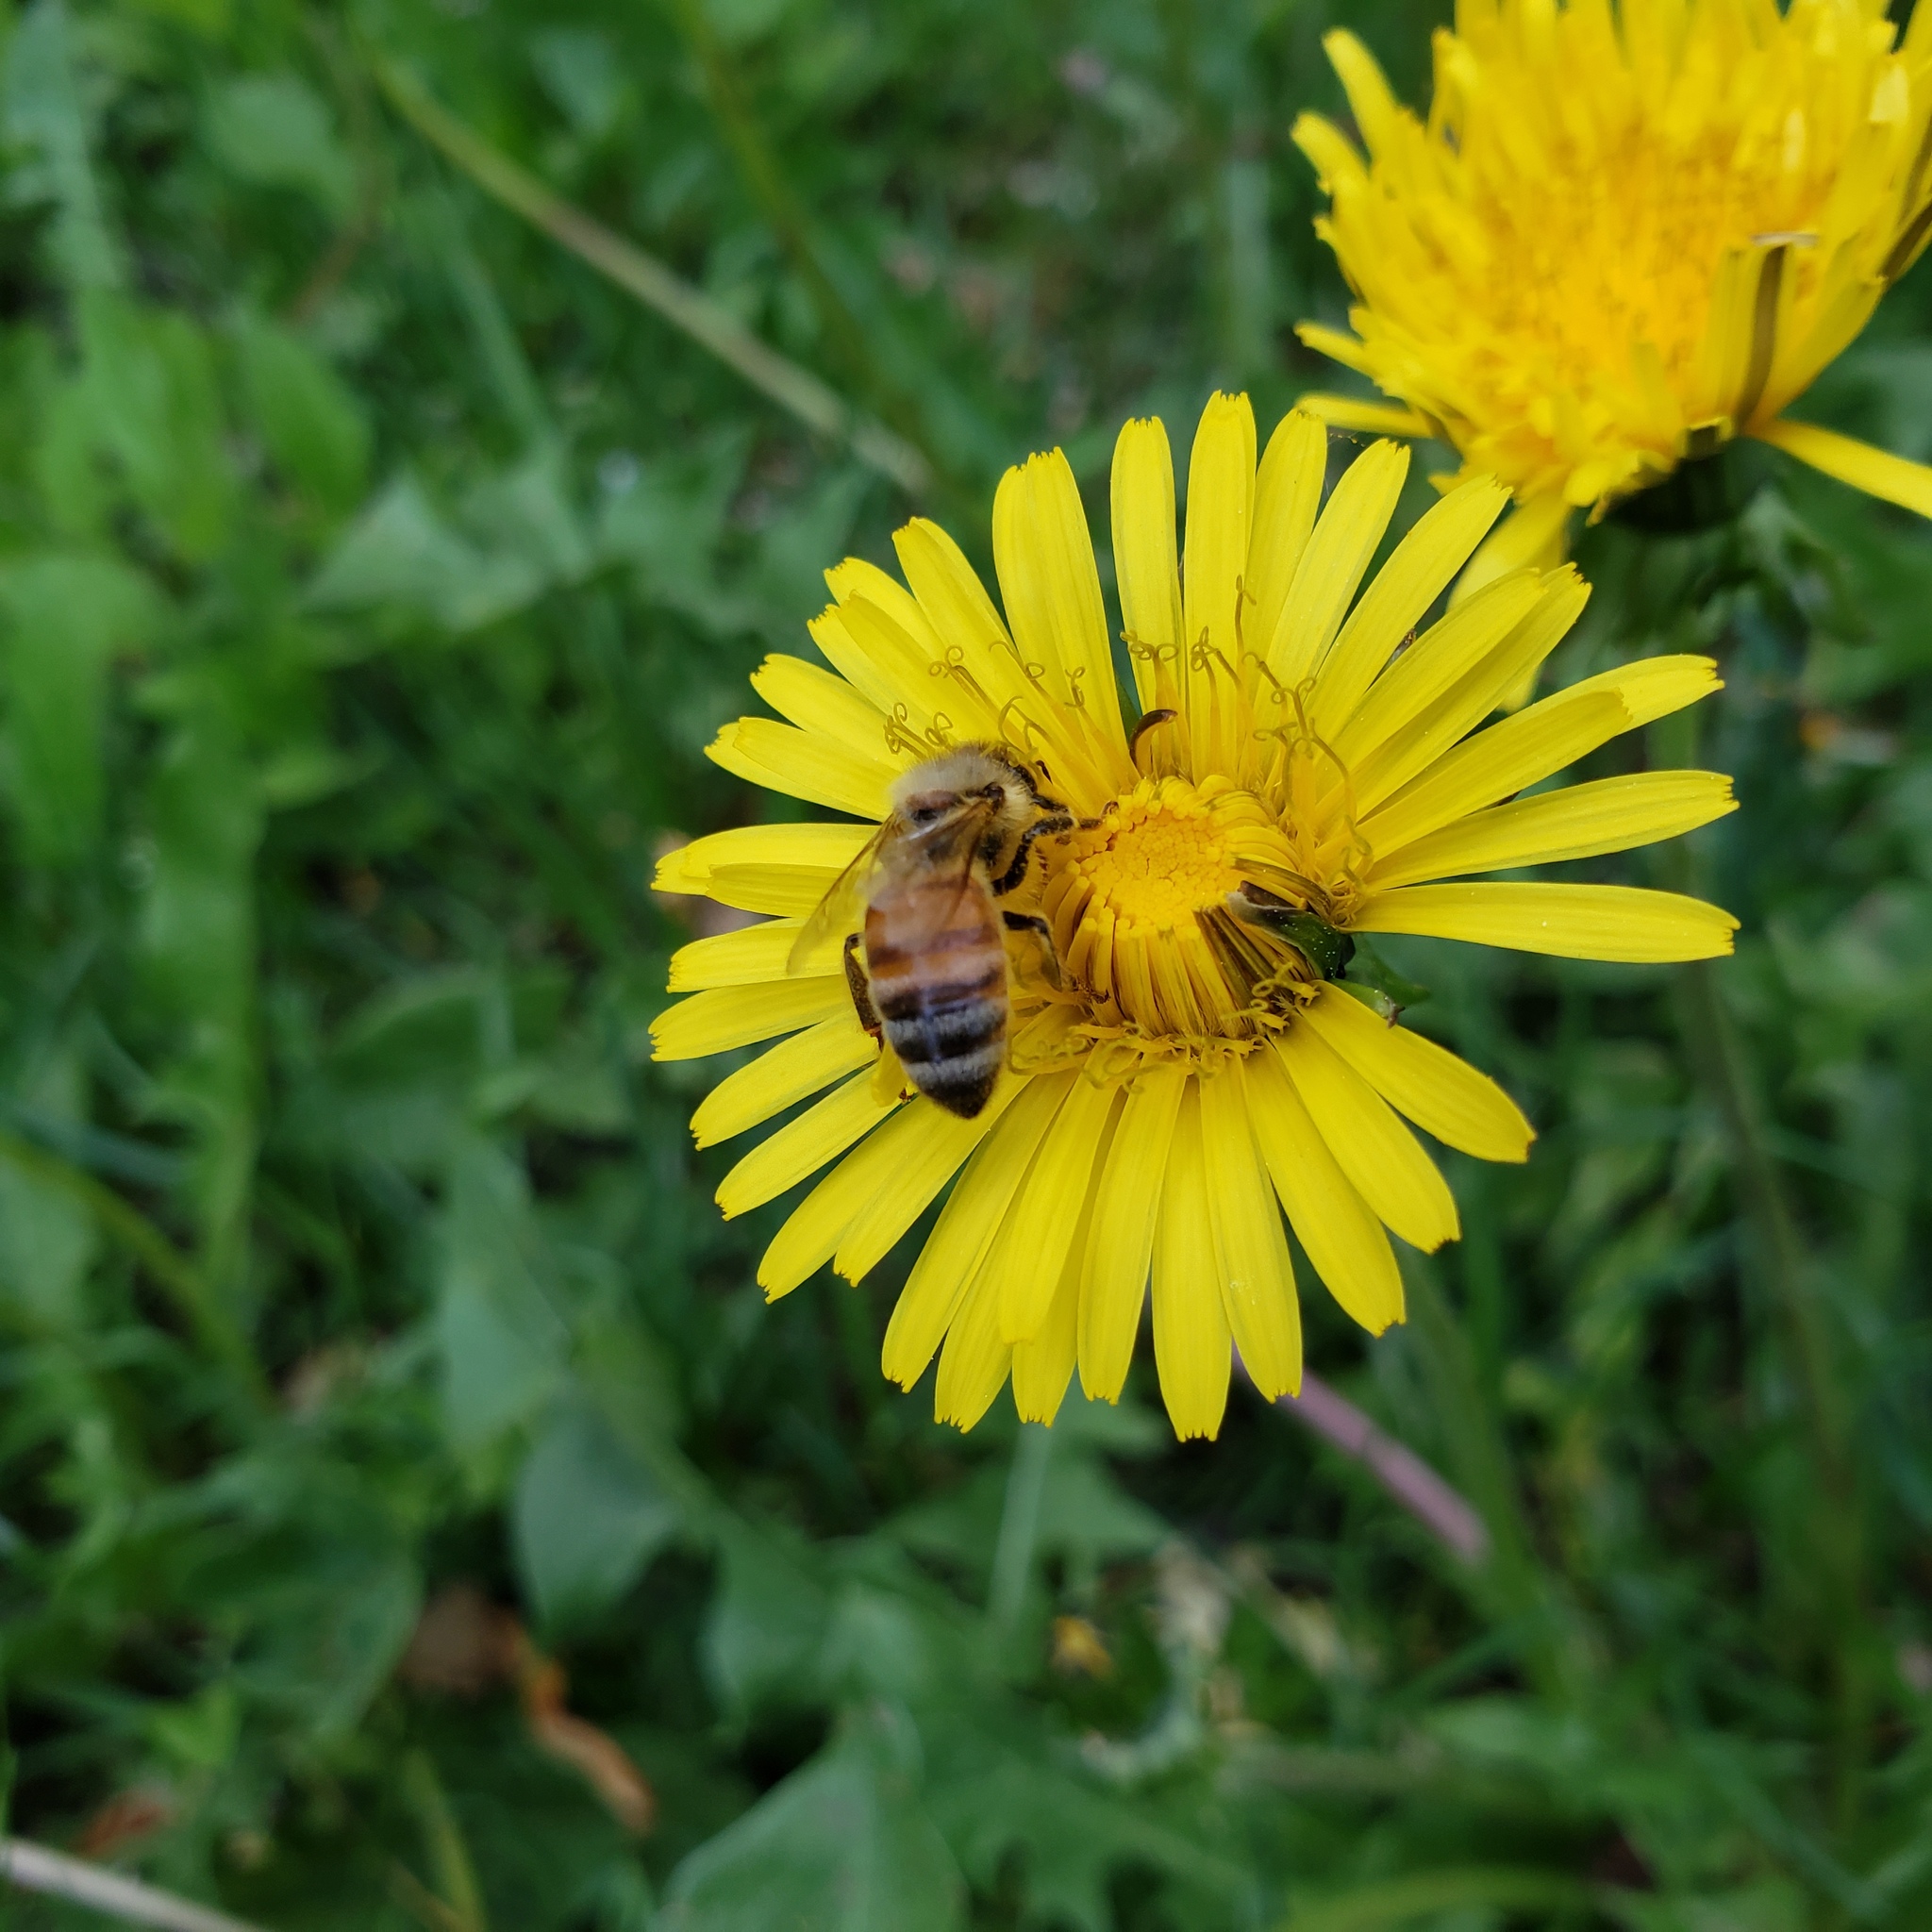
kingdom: Animalia
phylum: Arthropoda
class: Insecta
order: Hymenoptera
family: Apidae
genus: Apis
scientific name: Apis mellifera
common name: Honey bee
